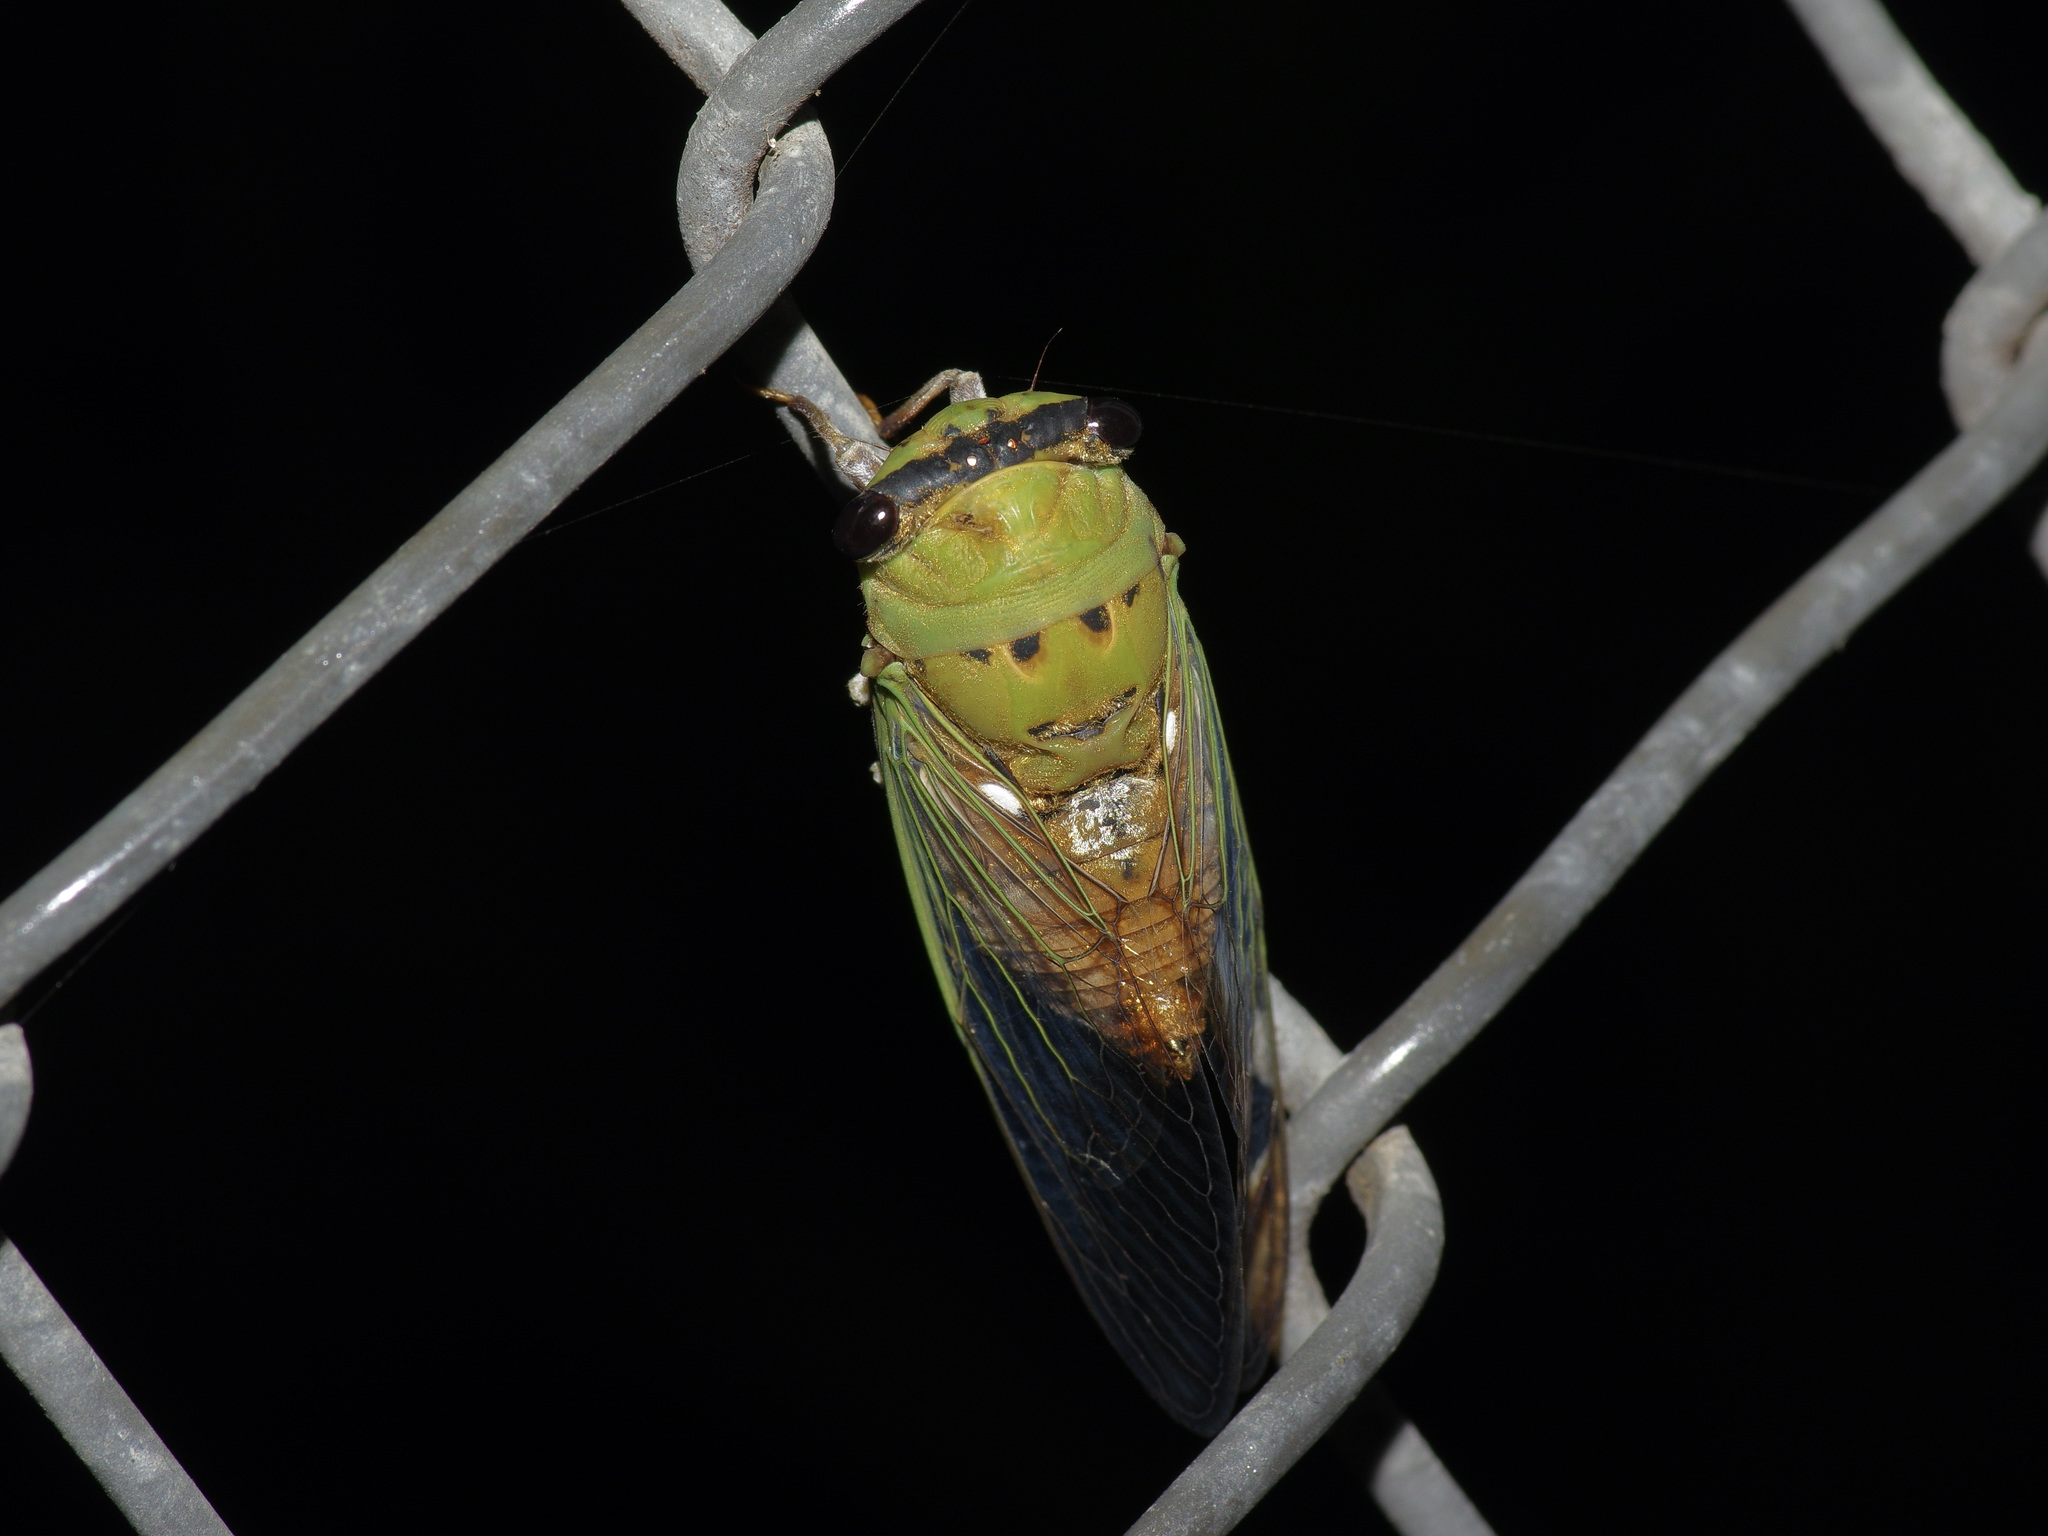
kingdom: Animalia
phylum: Arthropoda
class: Insecta
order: Hemiptera
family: Cicadidae
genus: Neotibicen
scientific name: Neotibicen superbus
